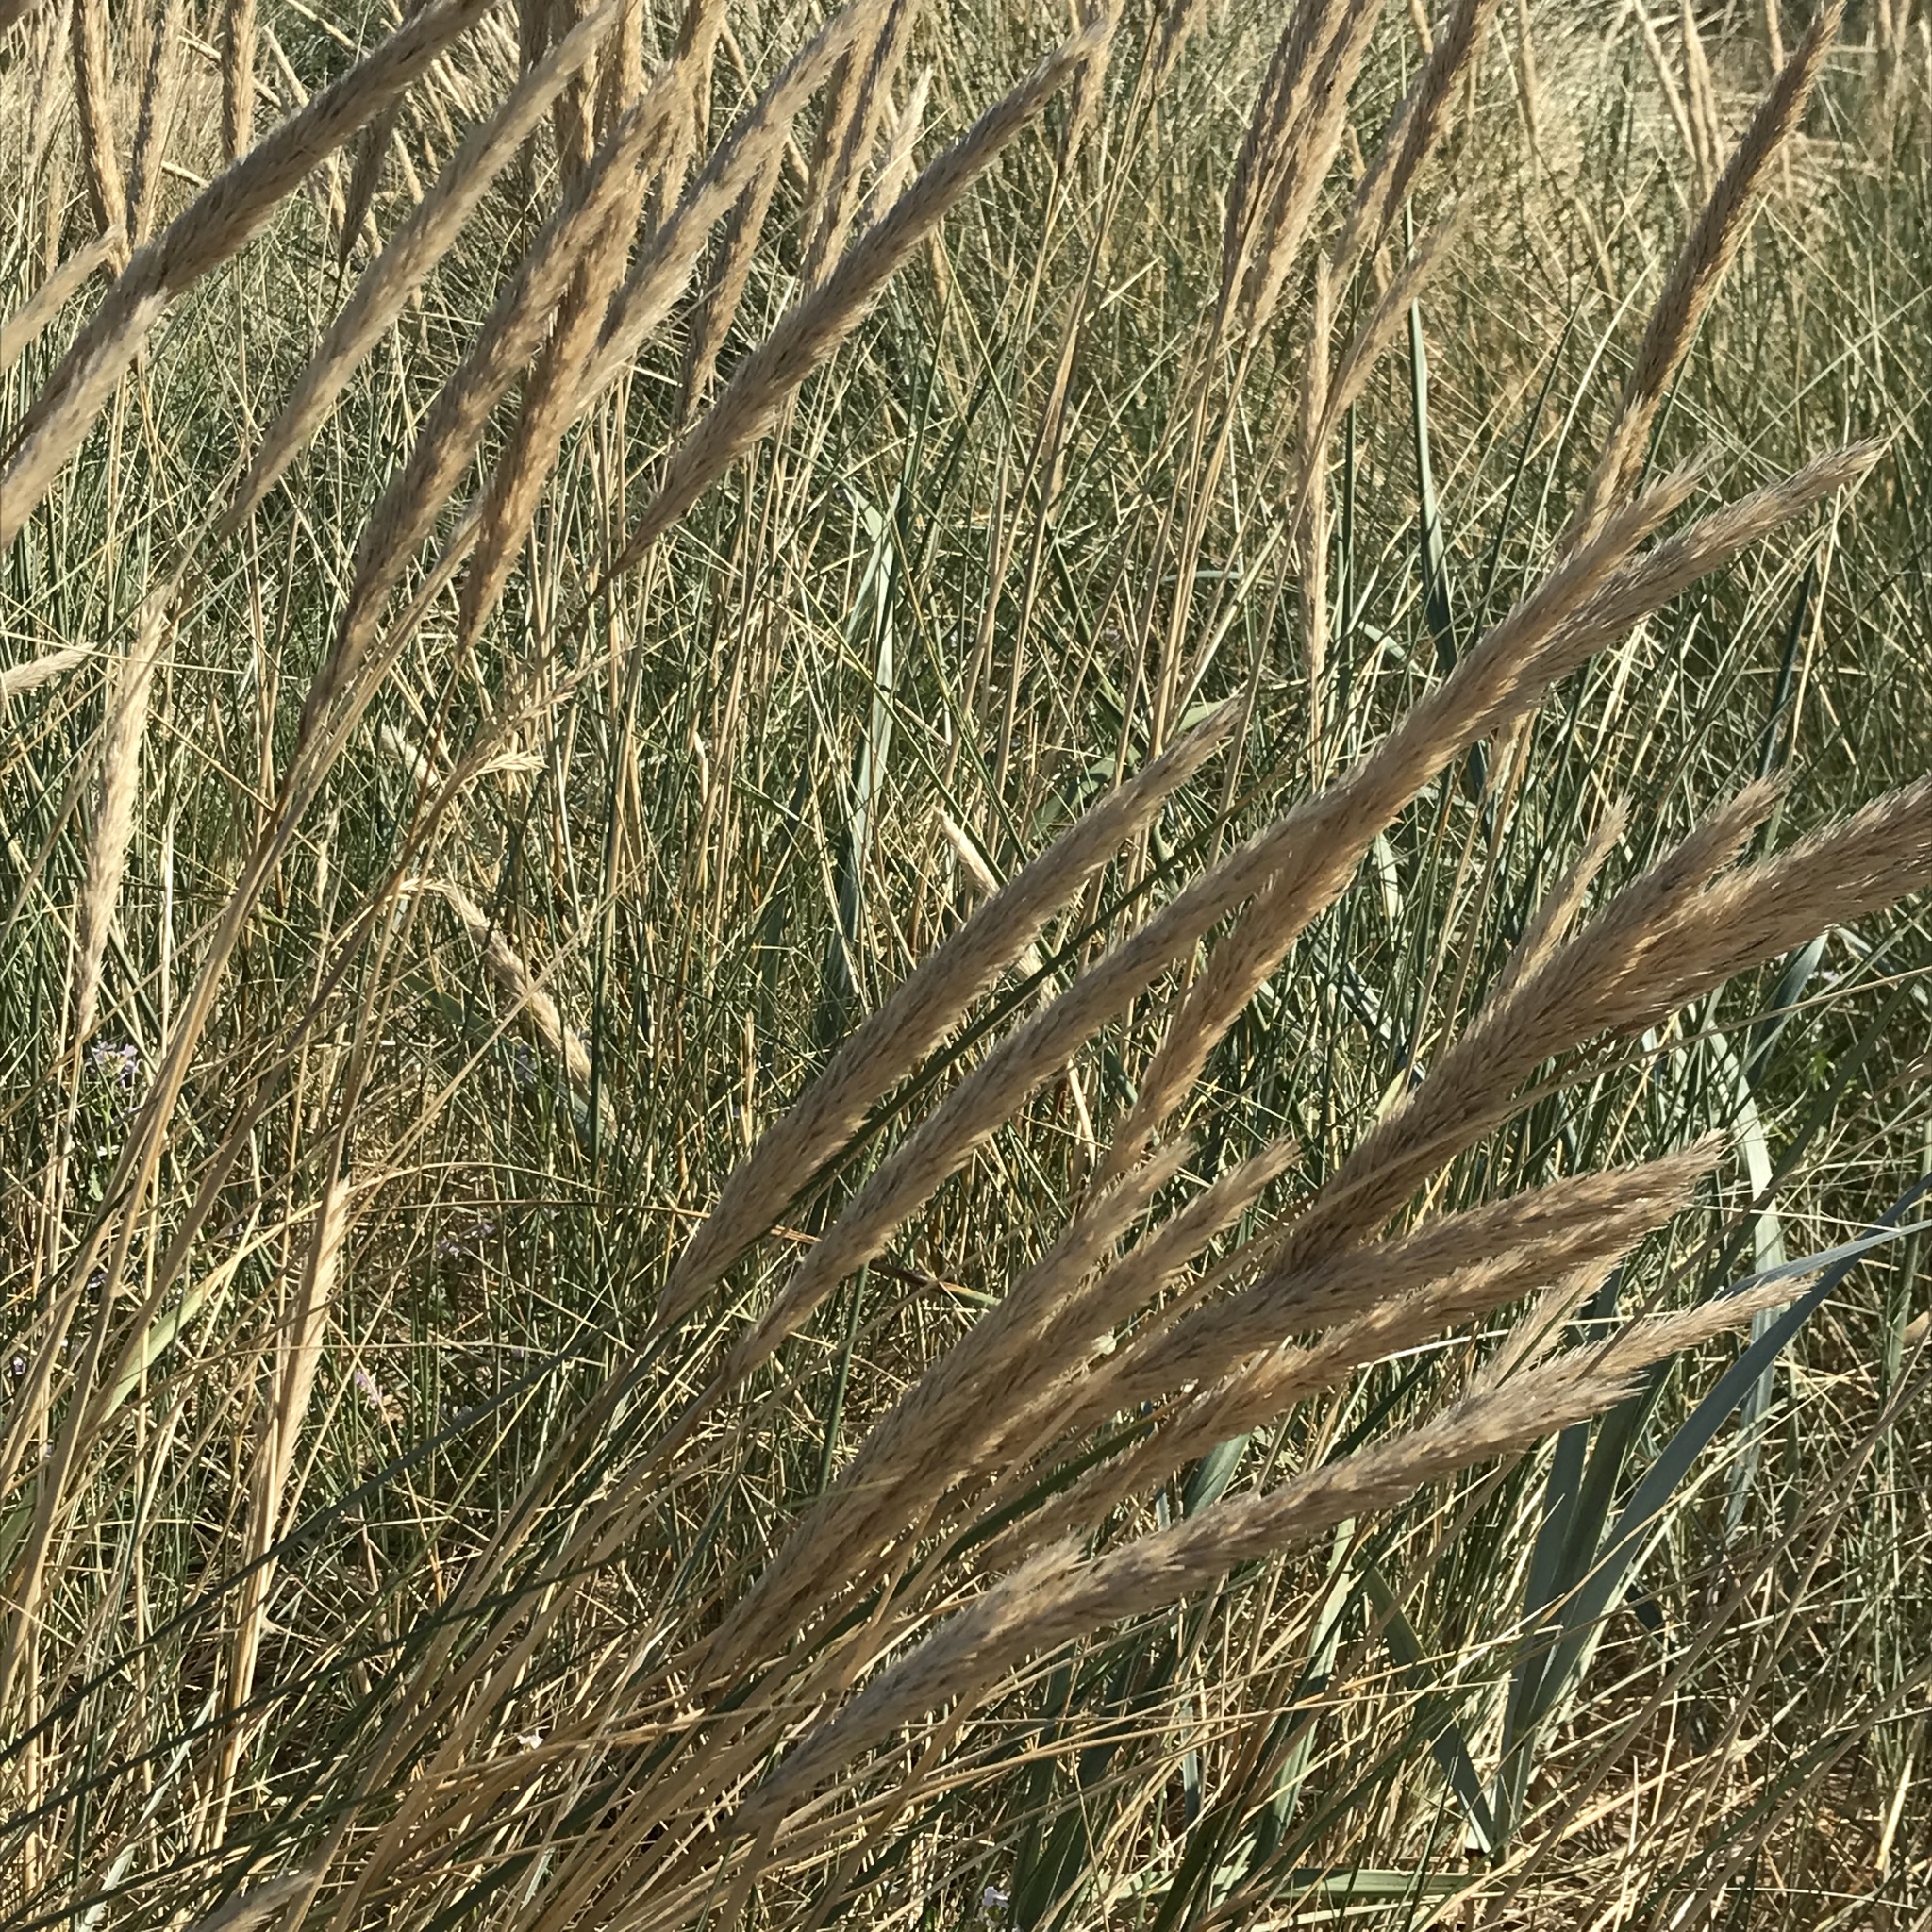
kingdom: Plantae
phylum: Tracheophyta
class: Liliopsida
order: Poales
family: Poaceae
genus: Calamagrostis
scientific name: Calamagrostis arenaria
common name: European beachgrass
